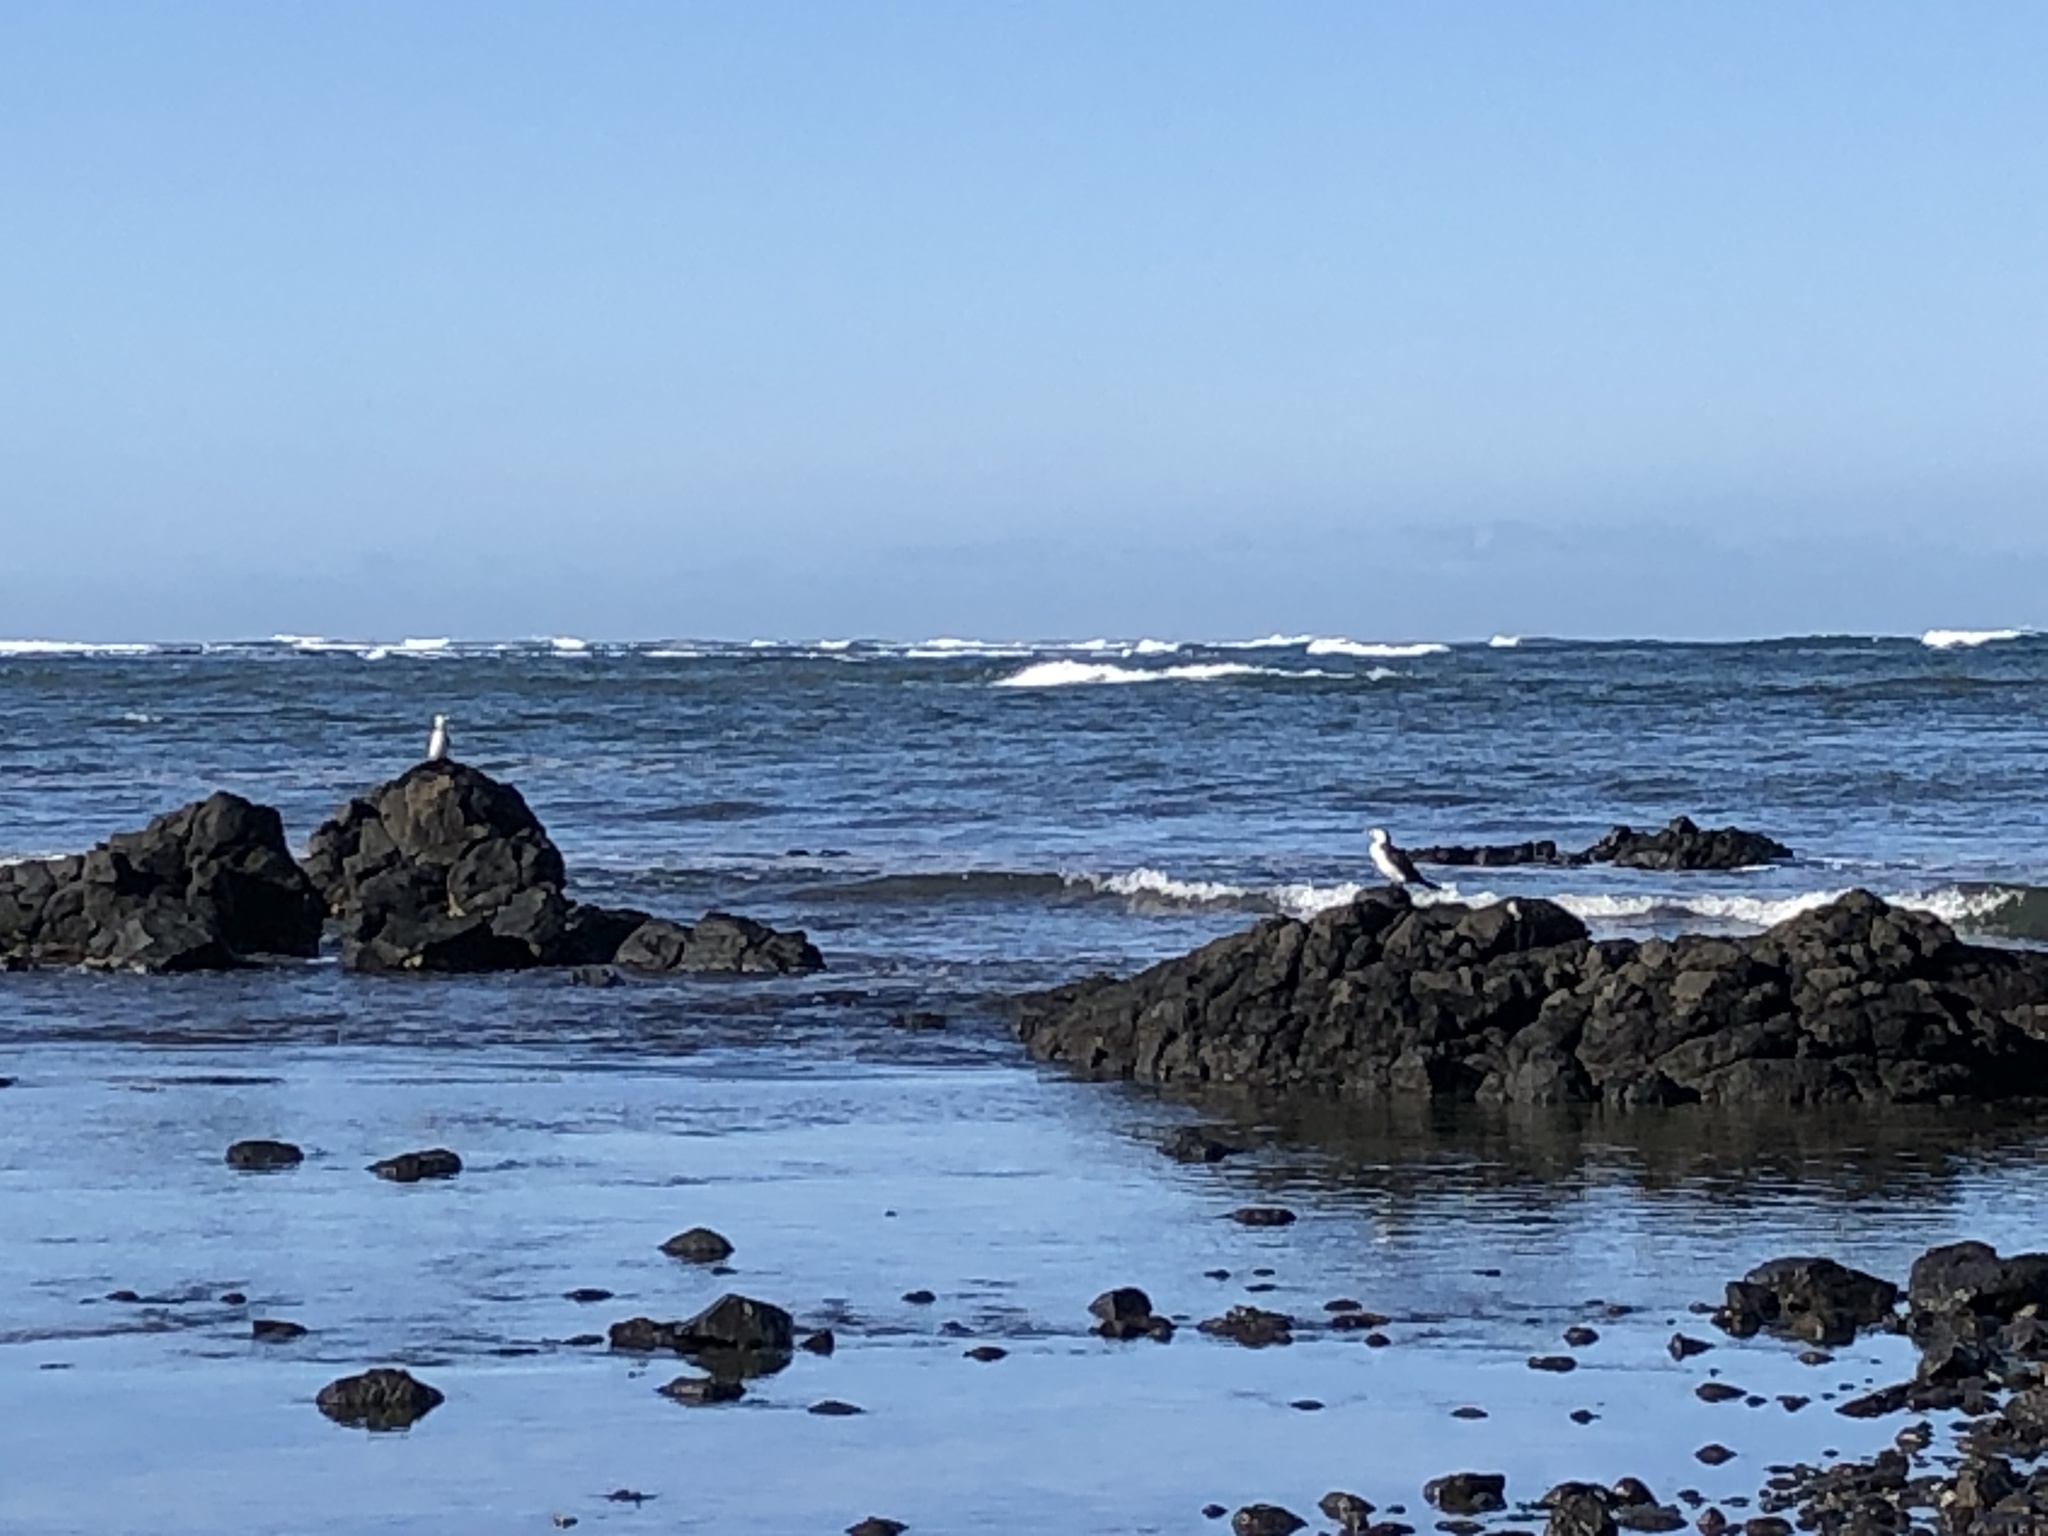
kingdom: Animalia
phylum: Chordata
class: Aves
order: Suliformes
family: Phalacrocoracidae
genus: Microcarbo
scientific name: Microcarbo melanoleucos
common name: Little pied cormorant
